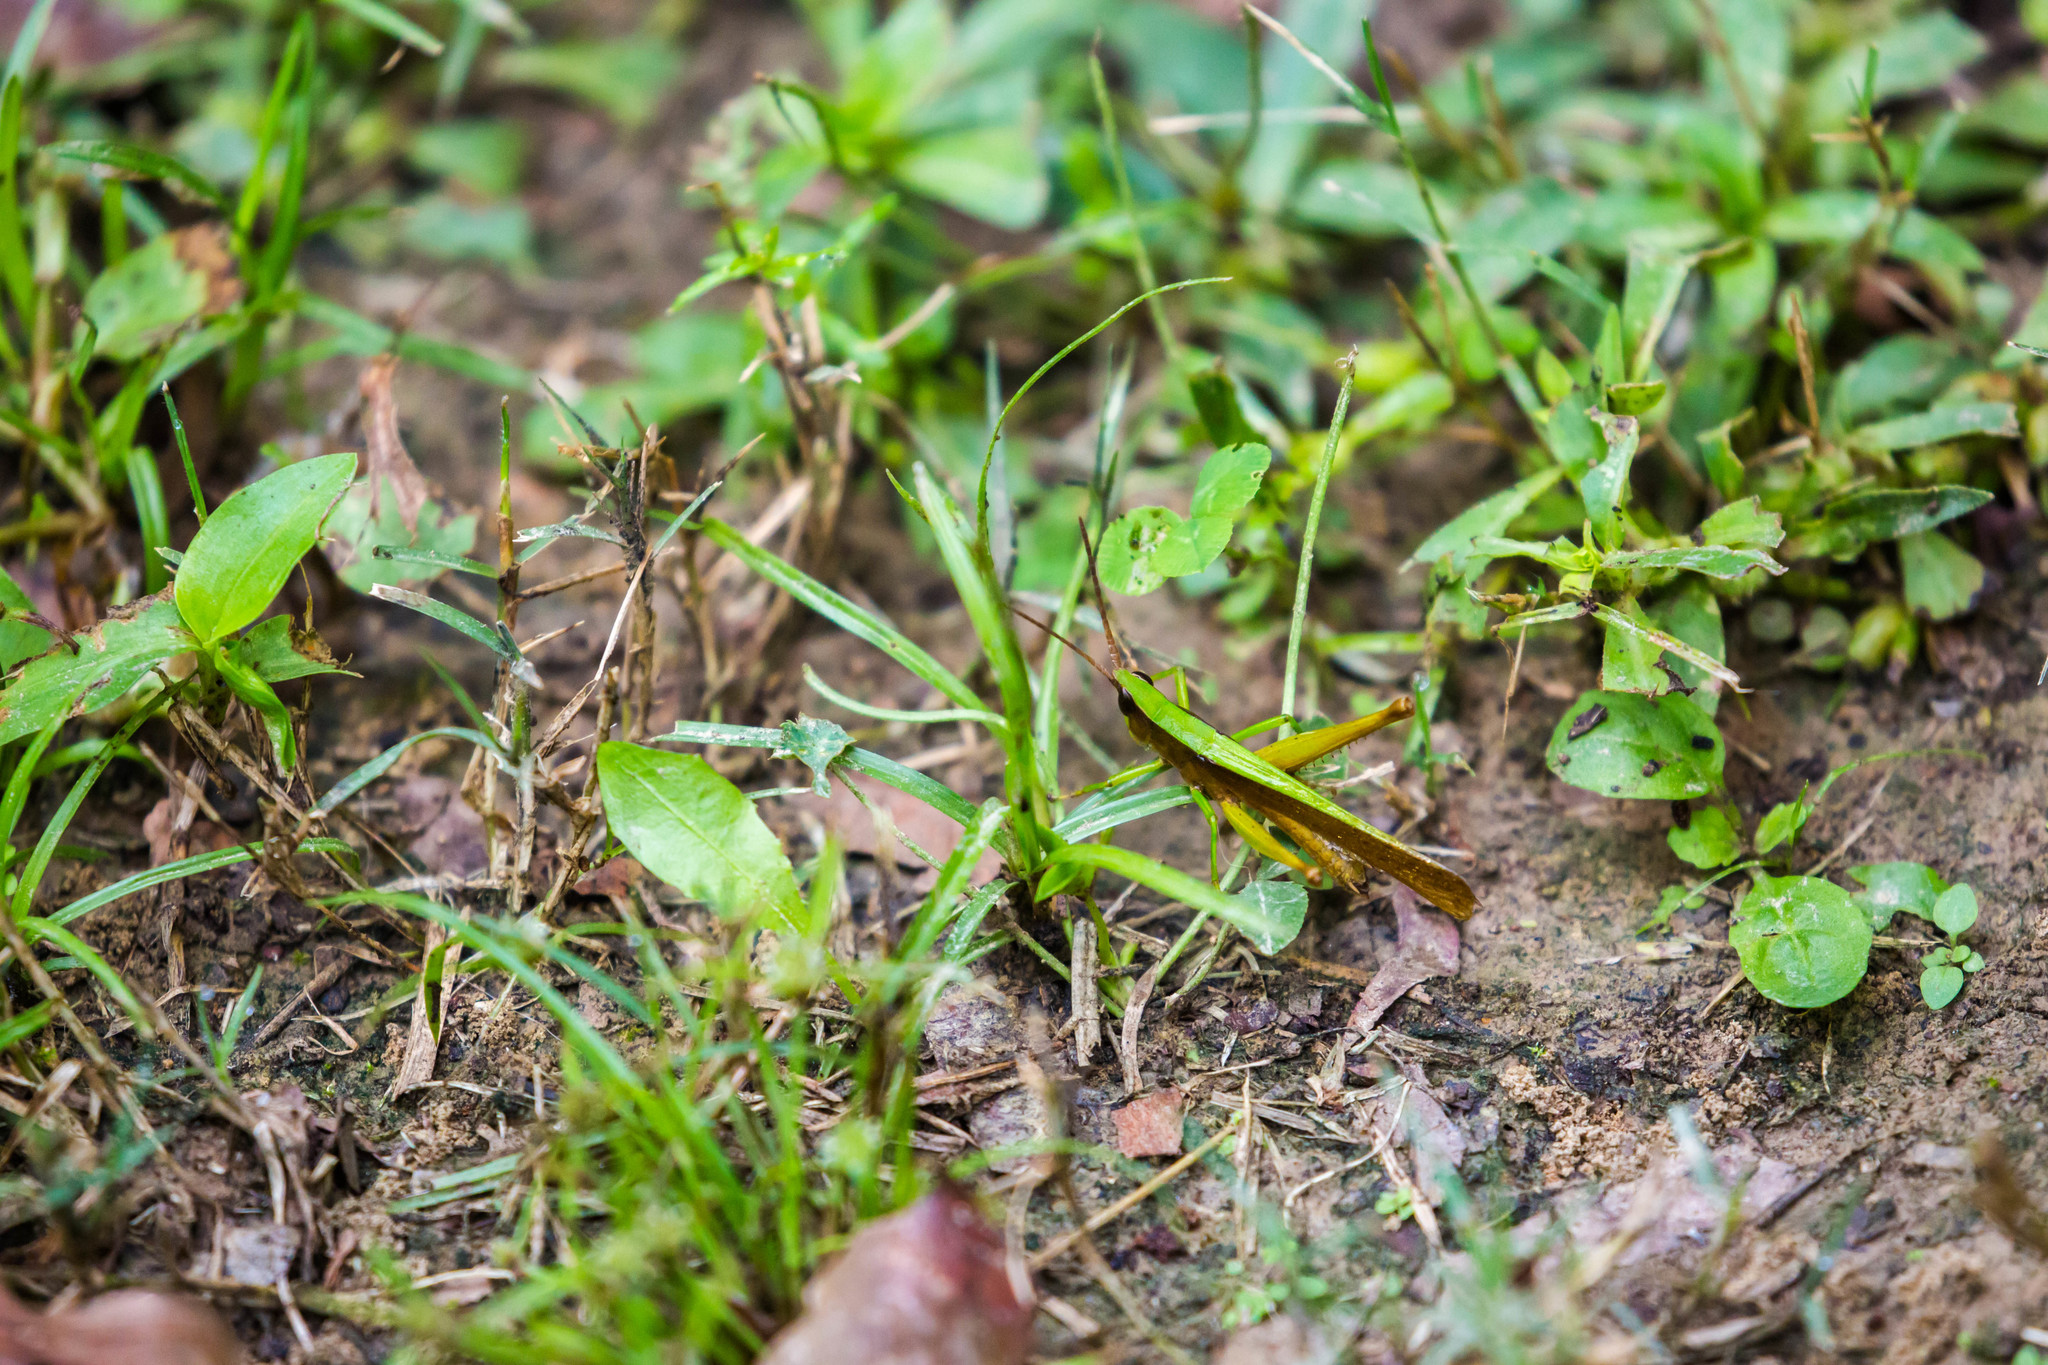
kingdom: Animalia
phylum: Arthropoda
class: Insecta
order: Orthoptera
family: Acrididae
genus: Metaleptea
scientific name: Metaleptea brevicornis
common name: Clipped-wing grasshopper
